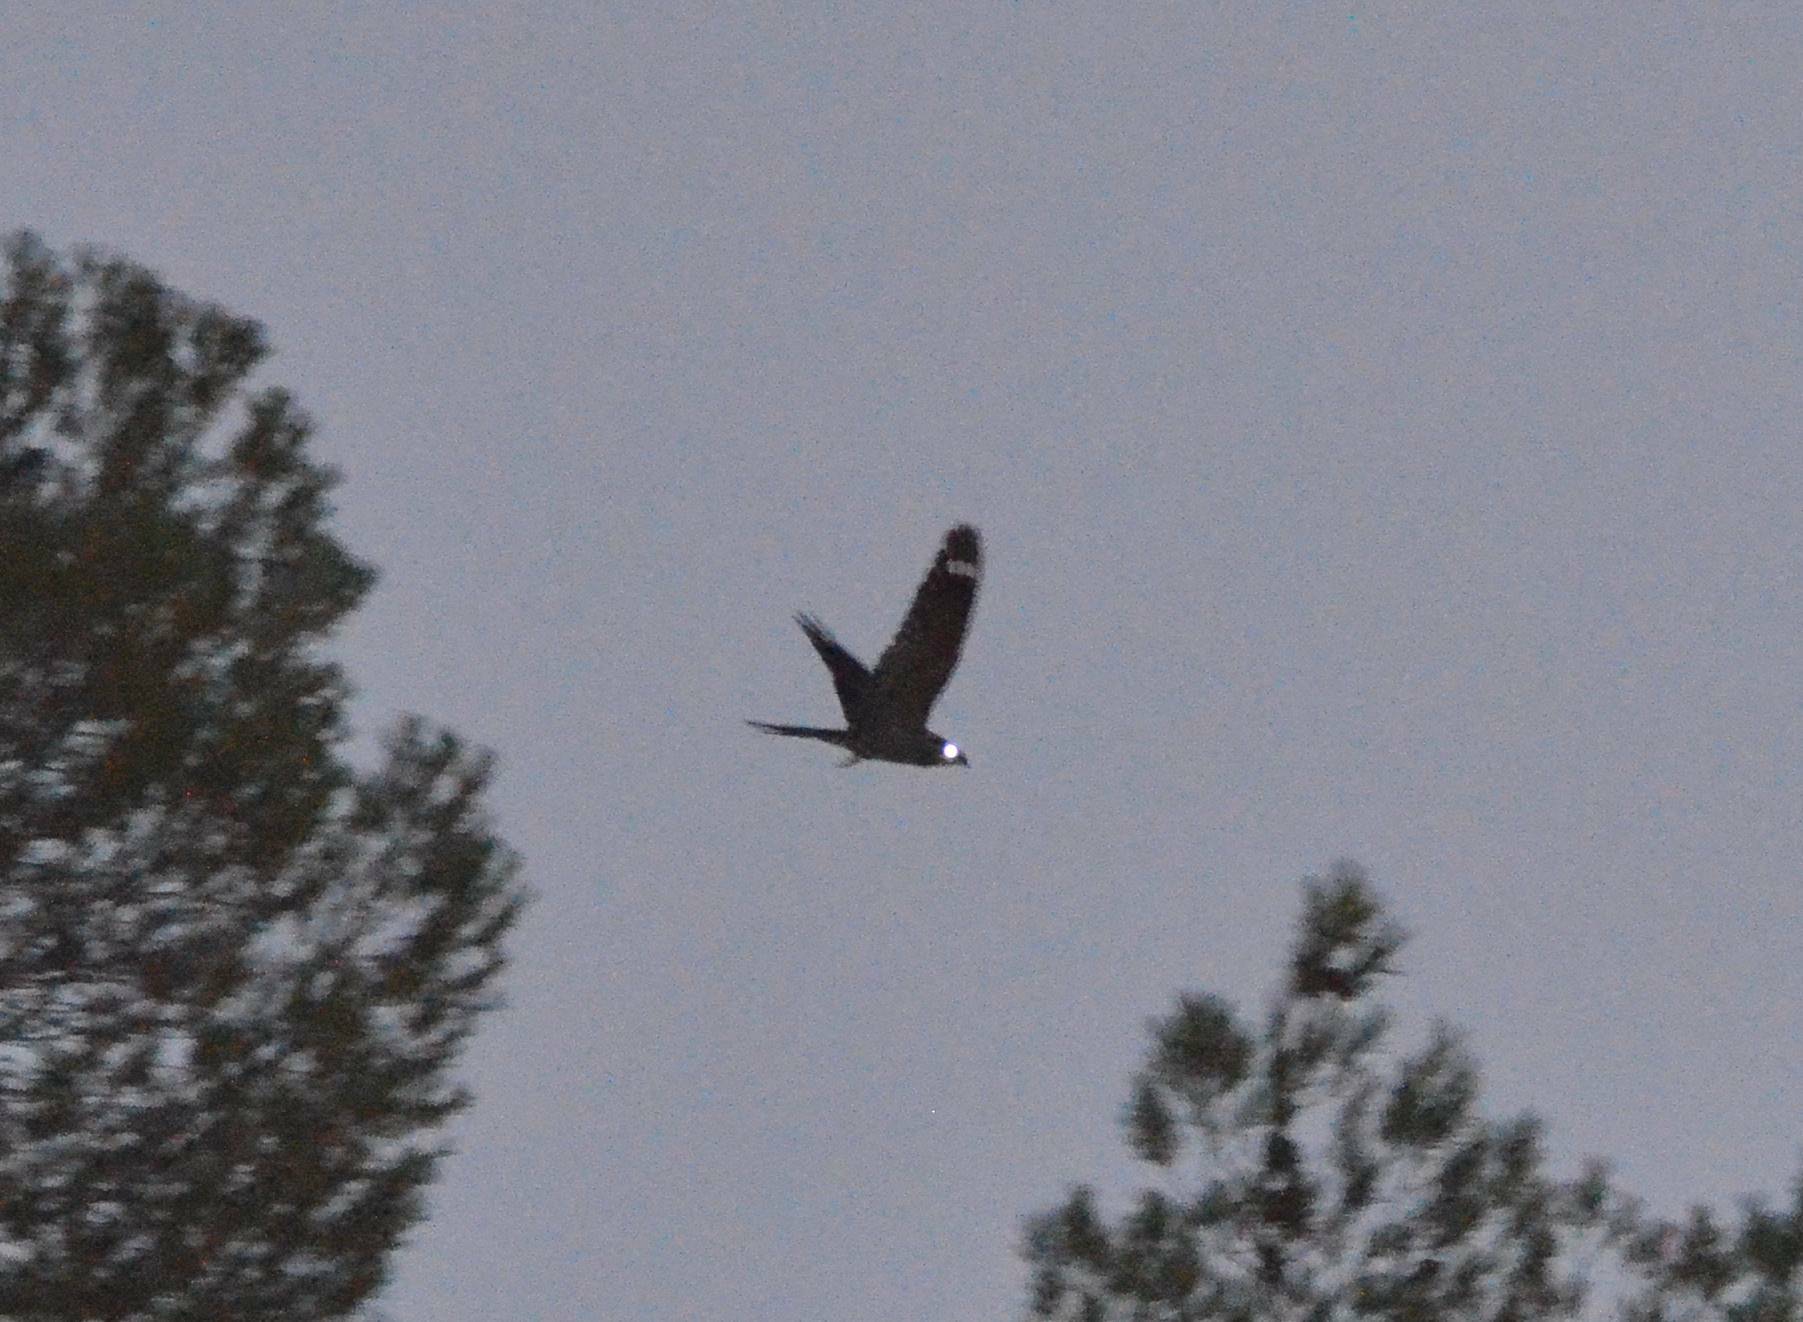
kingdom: Animalia
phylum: Chordata
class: Aves
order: Caprimulgiformes
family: Caprimulgidae
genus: Caprimulgus
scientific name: Caprimulgus europaeus
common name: European nightjar
